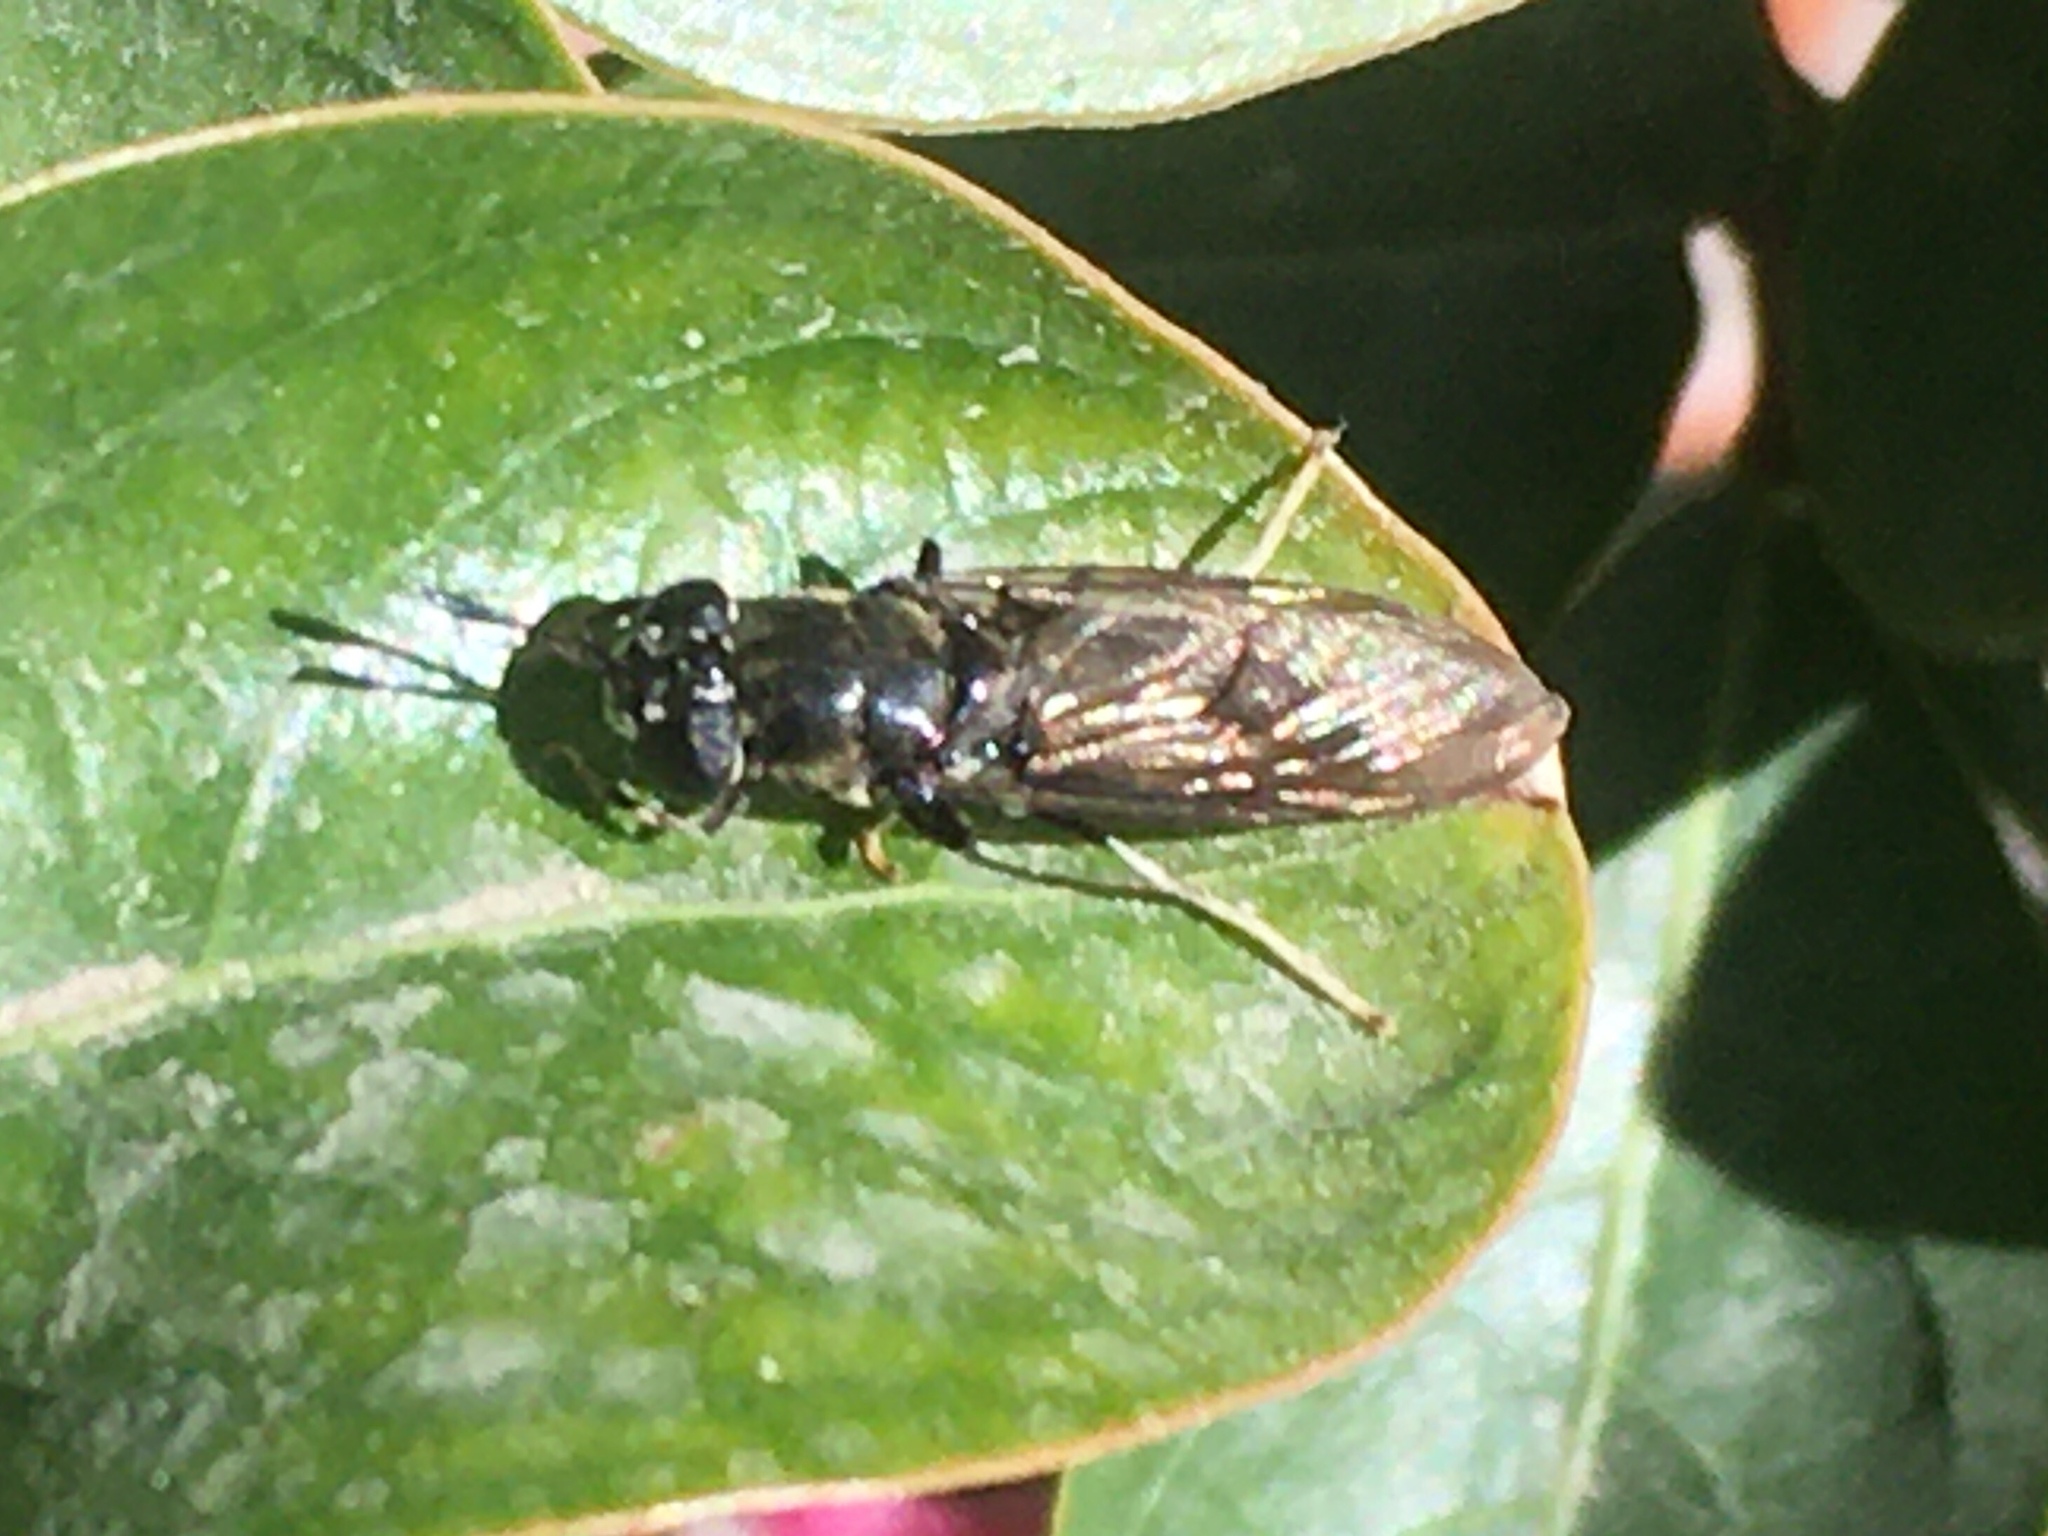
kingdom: Animalia
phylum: Arthropoda
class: Insecta
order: Diptera
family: Stratiomyidae
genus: Hermetia
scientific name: Hermetia illucens
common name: Black soldier fly
